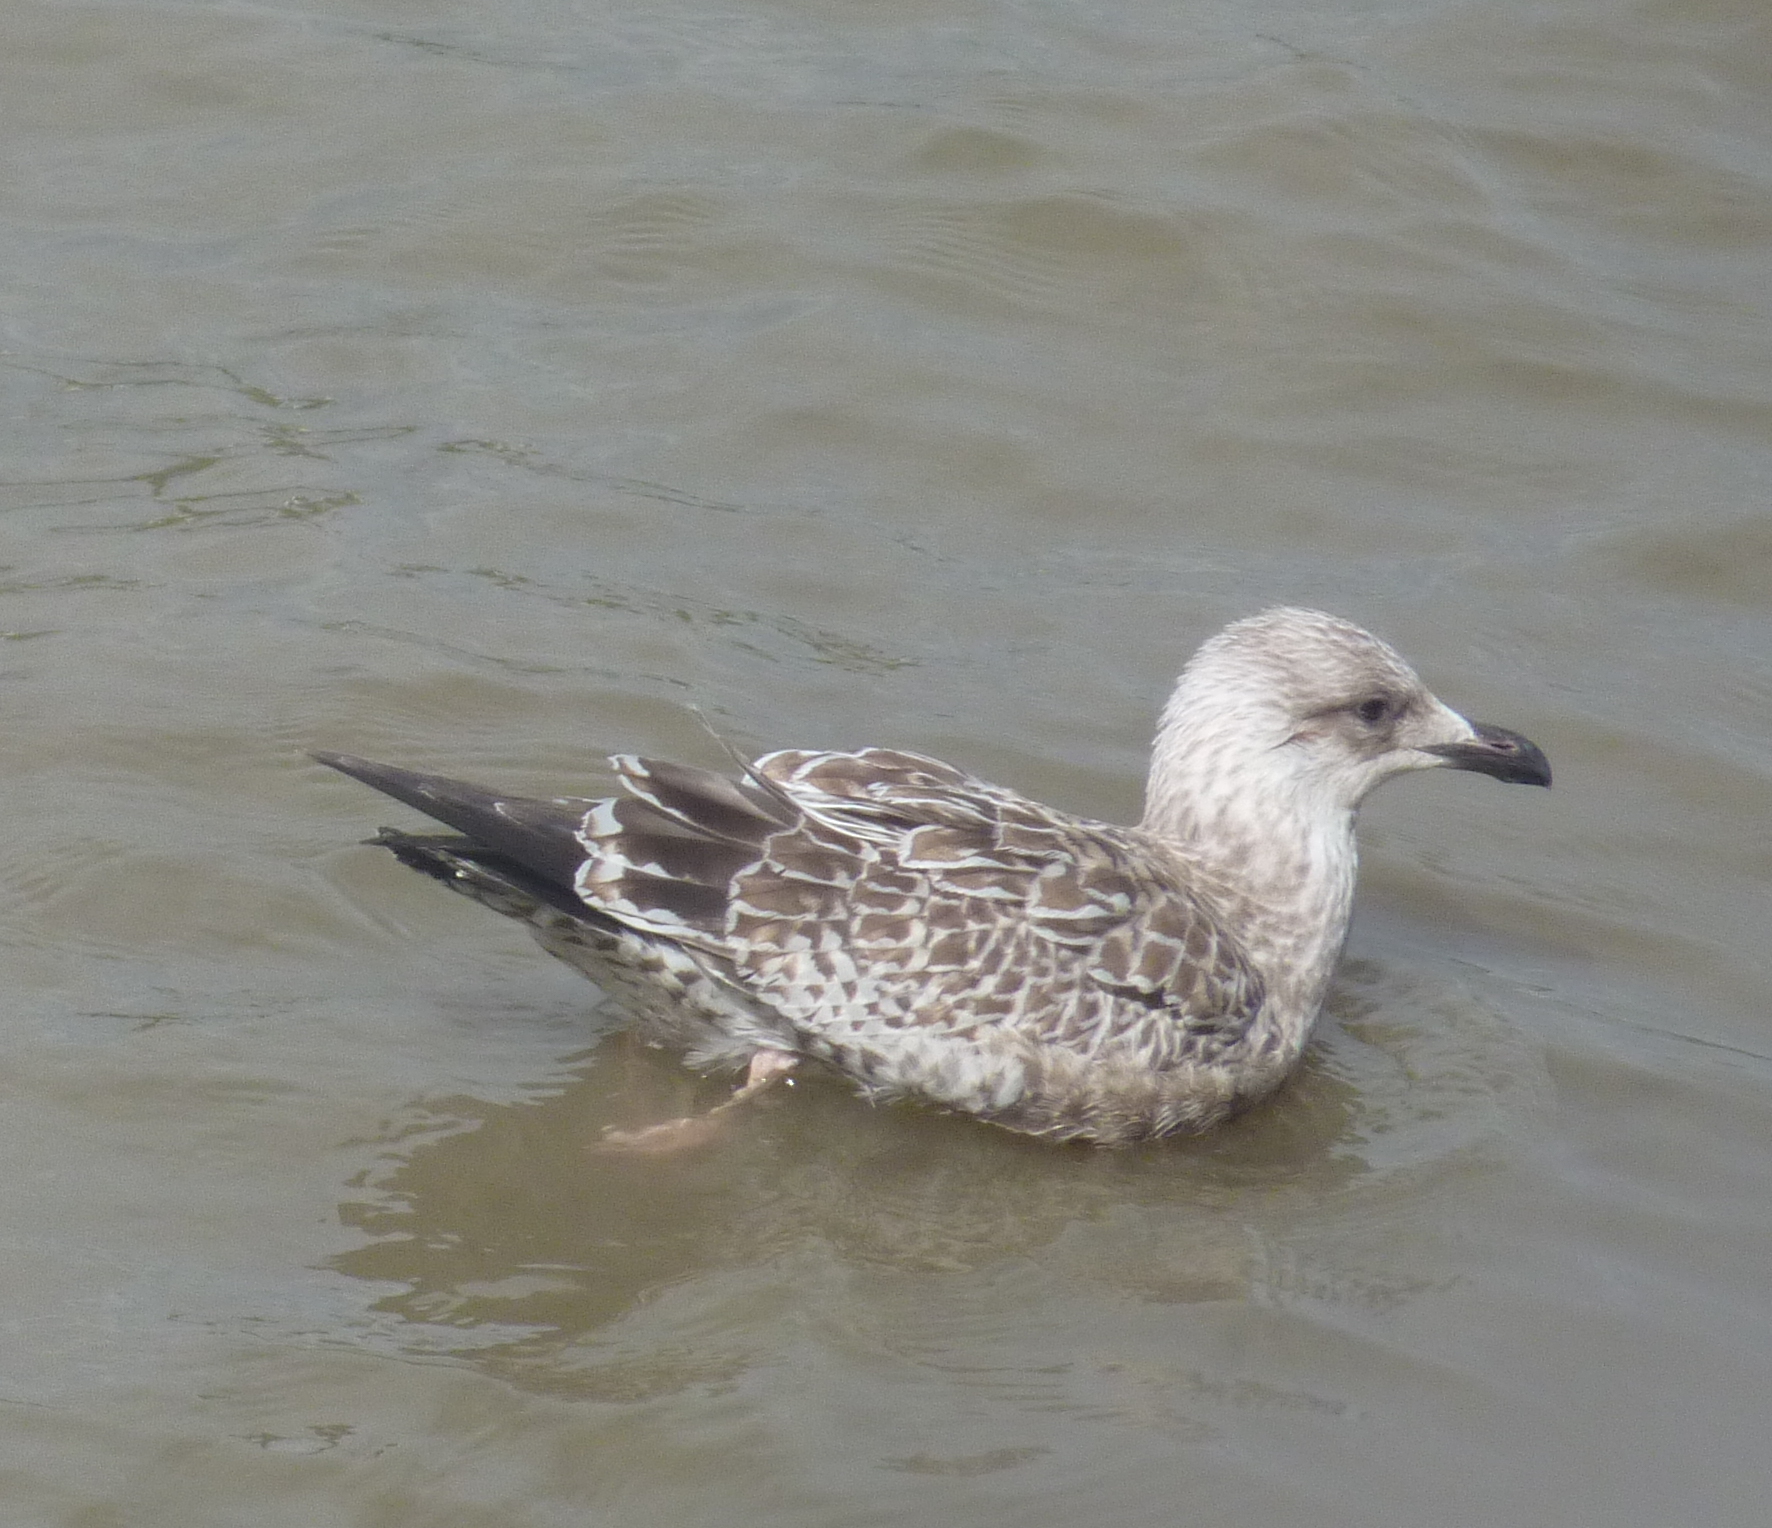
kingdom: Animalia
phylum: Chordata
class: Aves
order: Charadriiformes
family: Laridae
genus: Larus
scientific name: Larus argentatus
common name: Herring gull
